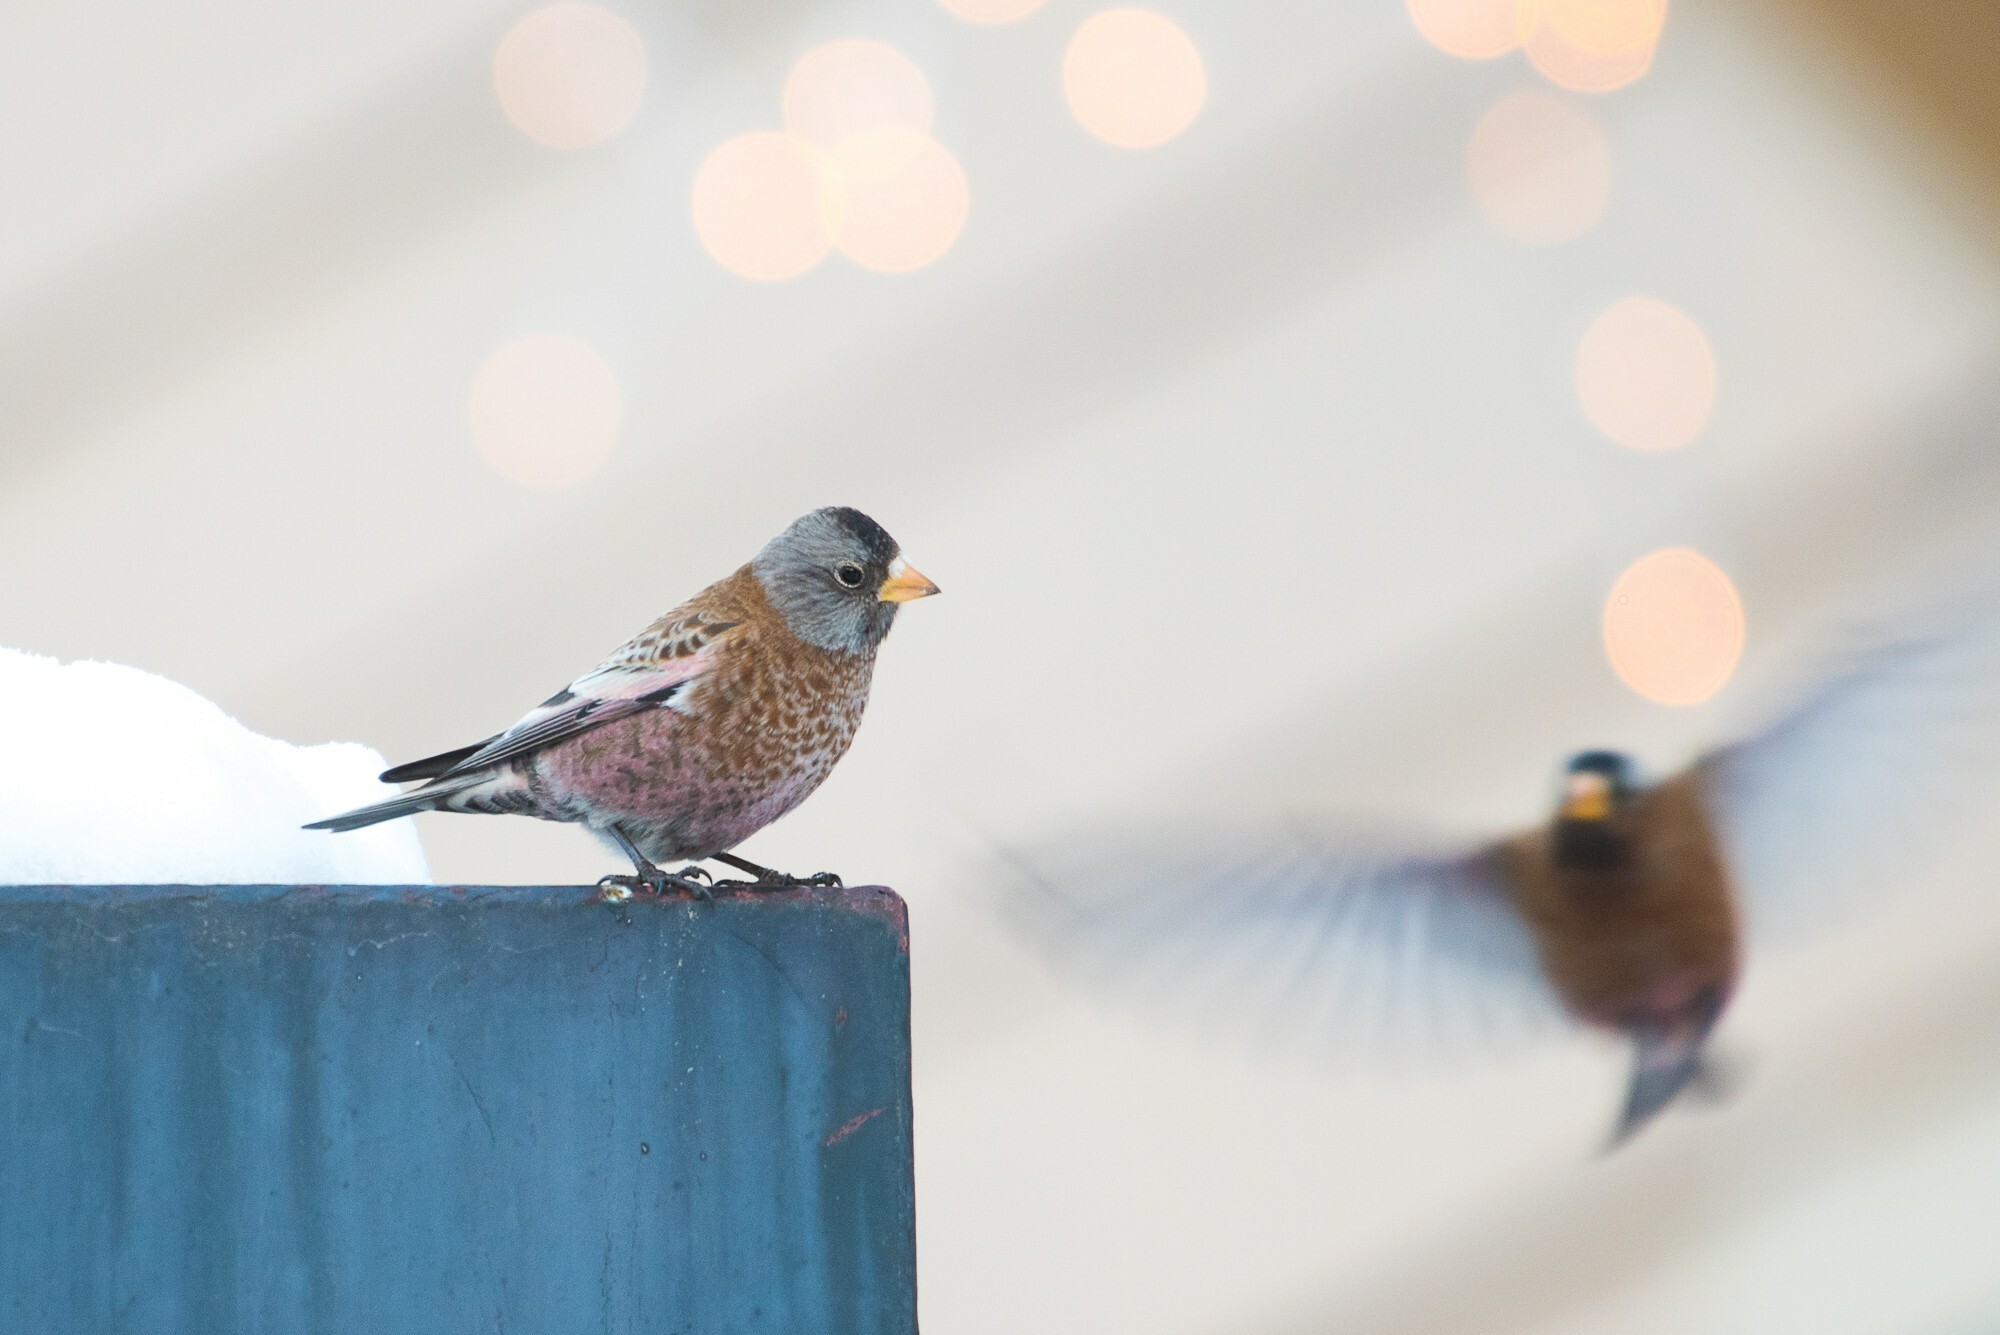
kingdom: Animalia
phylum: Chordata
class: Aves
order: Passeriformes
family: Fringillidae
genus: Leucosticte
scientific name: Leucosticte tephrocotis
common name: Gray-crowned rosy-finch
